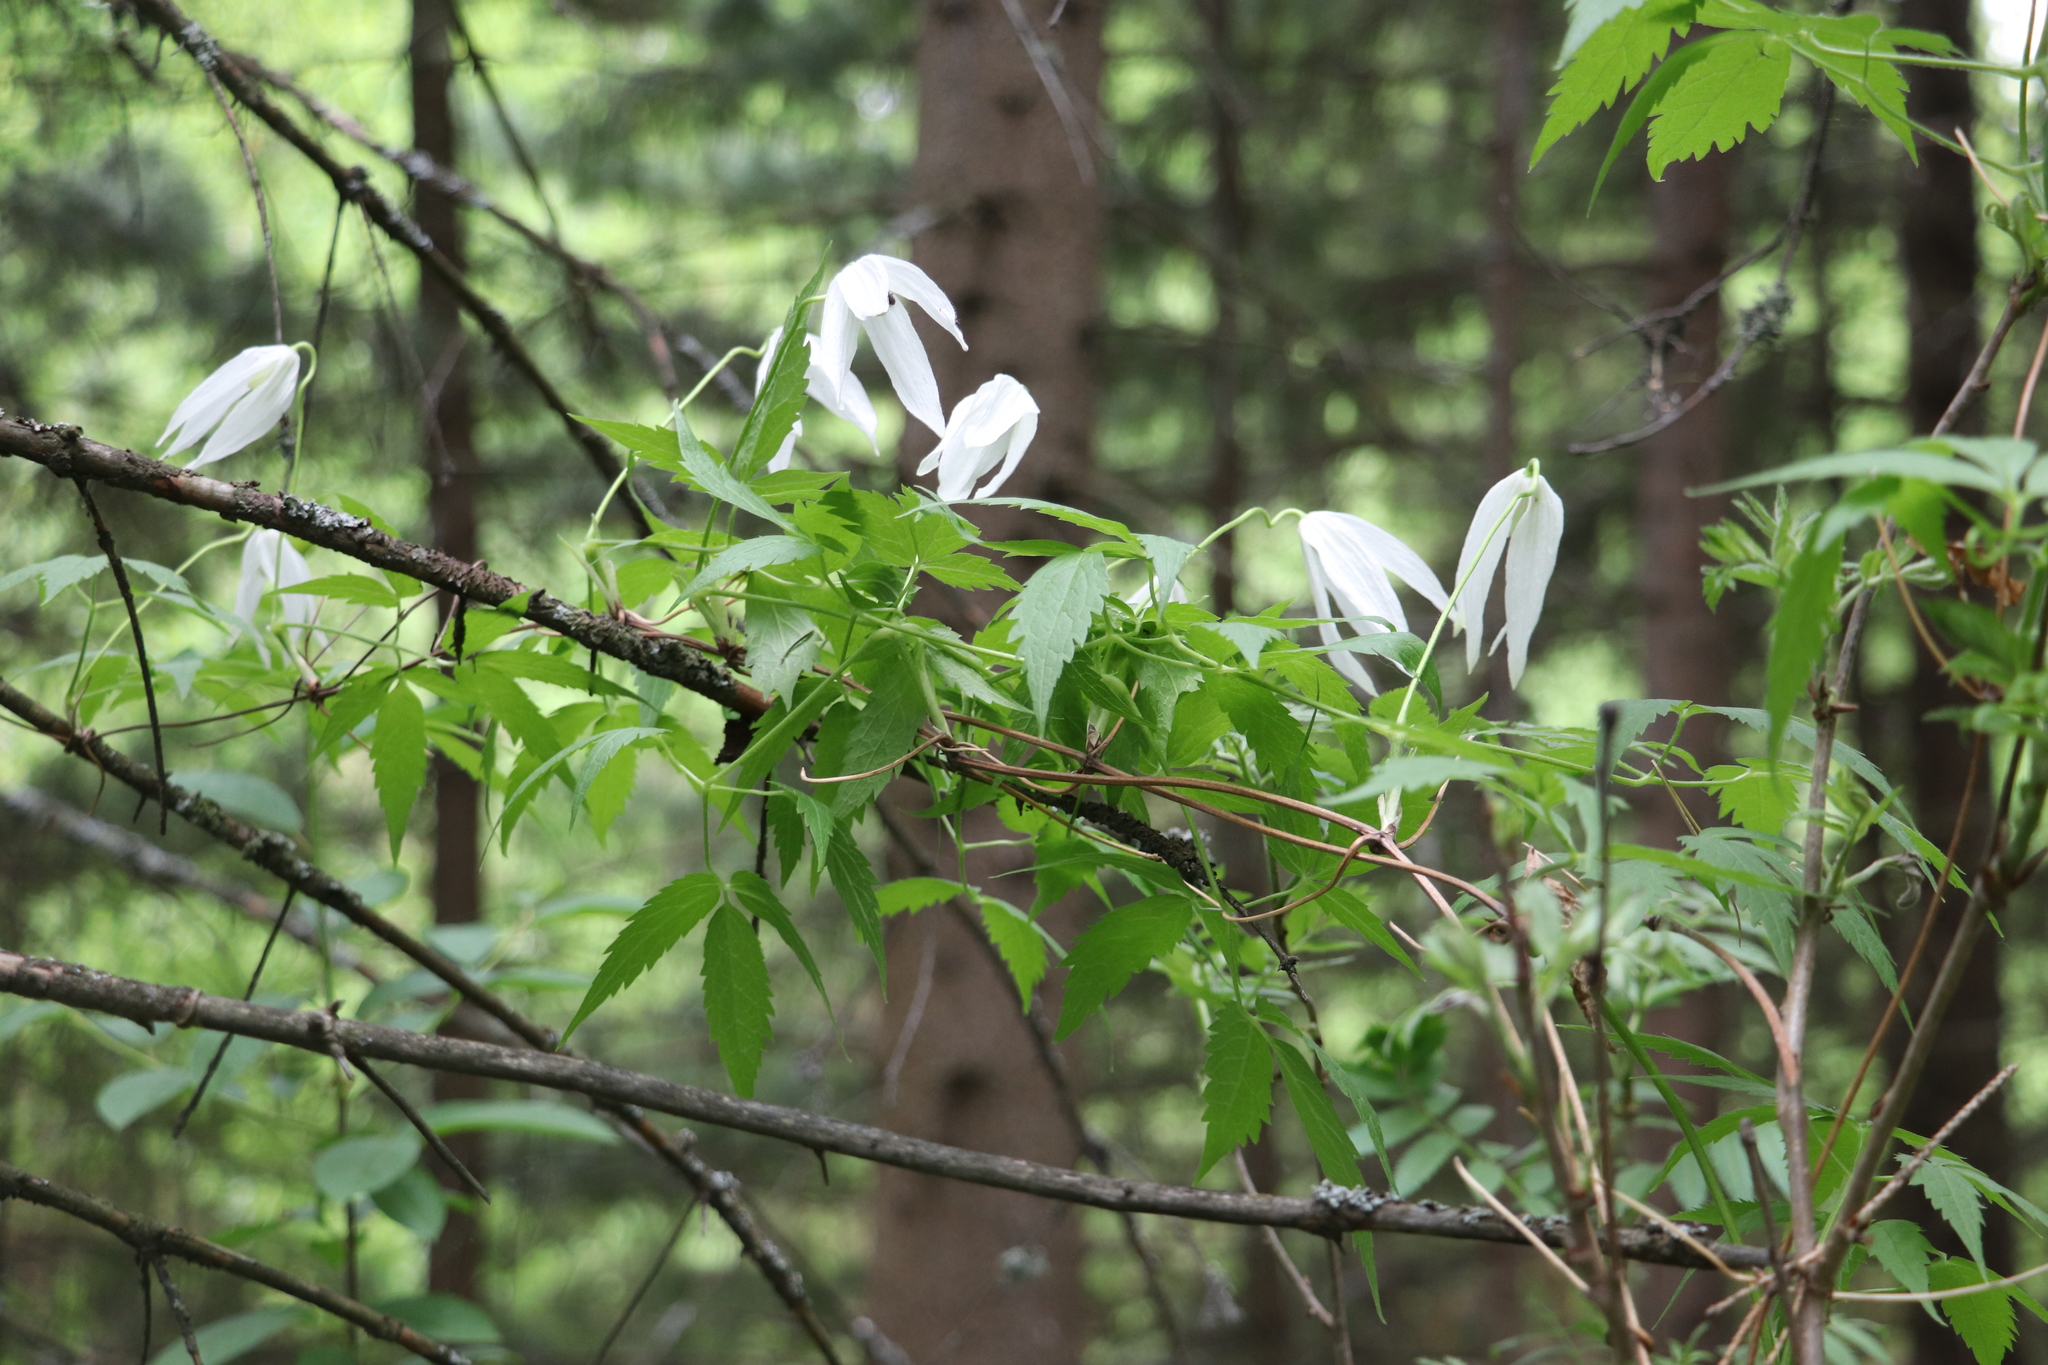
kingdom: Plantae
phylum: Tracheophyta
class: Magnoliopsida
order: Ranunculales
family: Ranunculaceae
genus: Clematis
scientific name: Clematis sibirica
